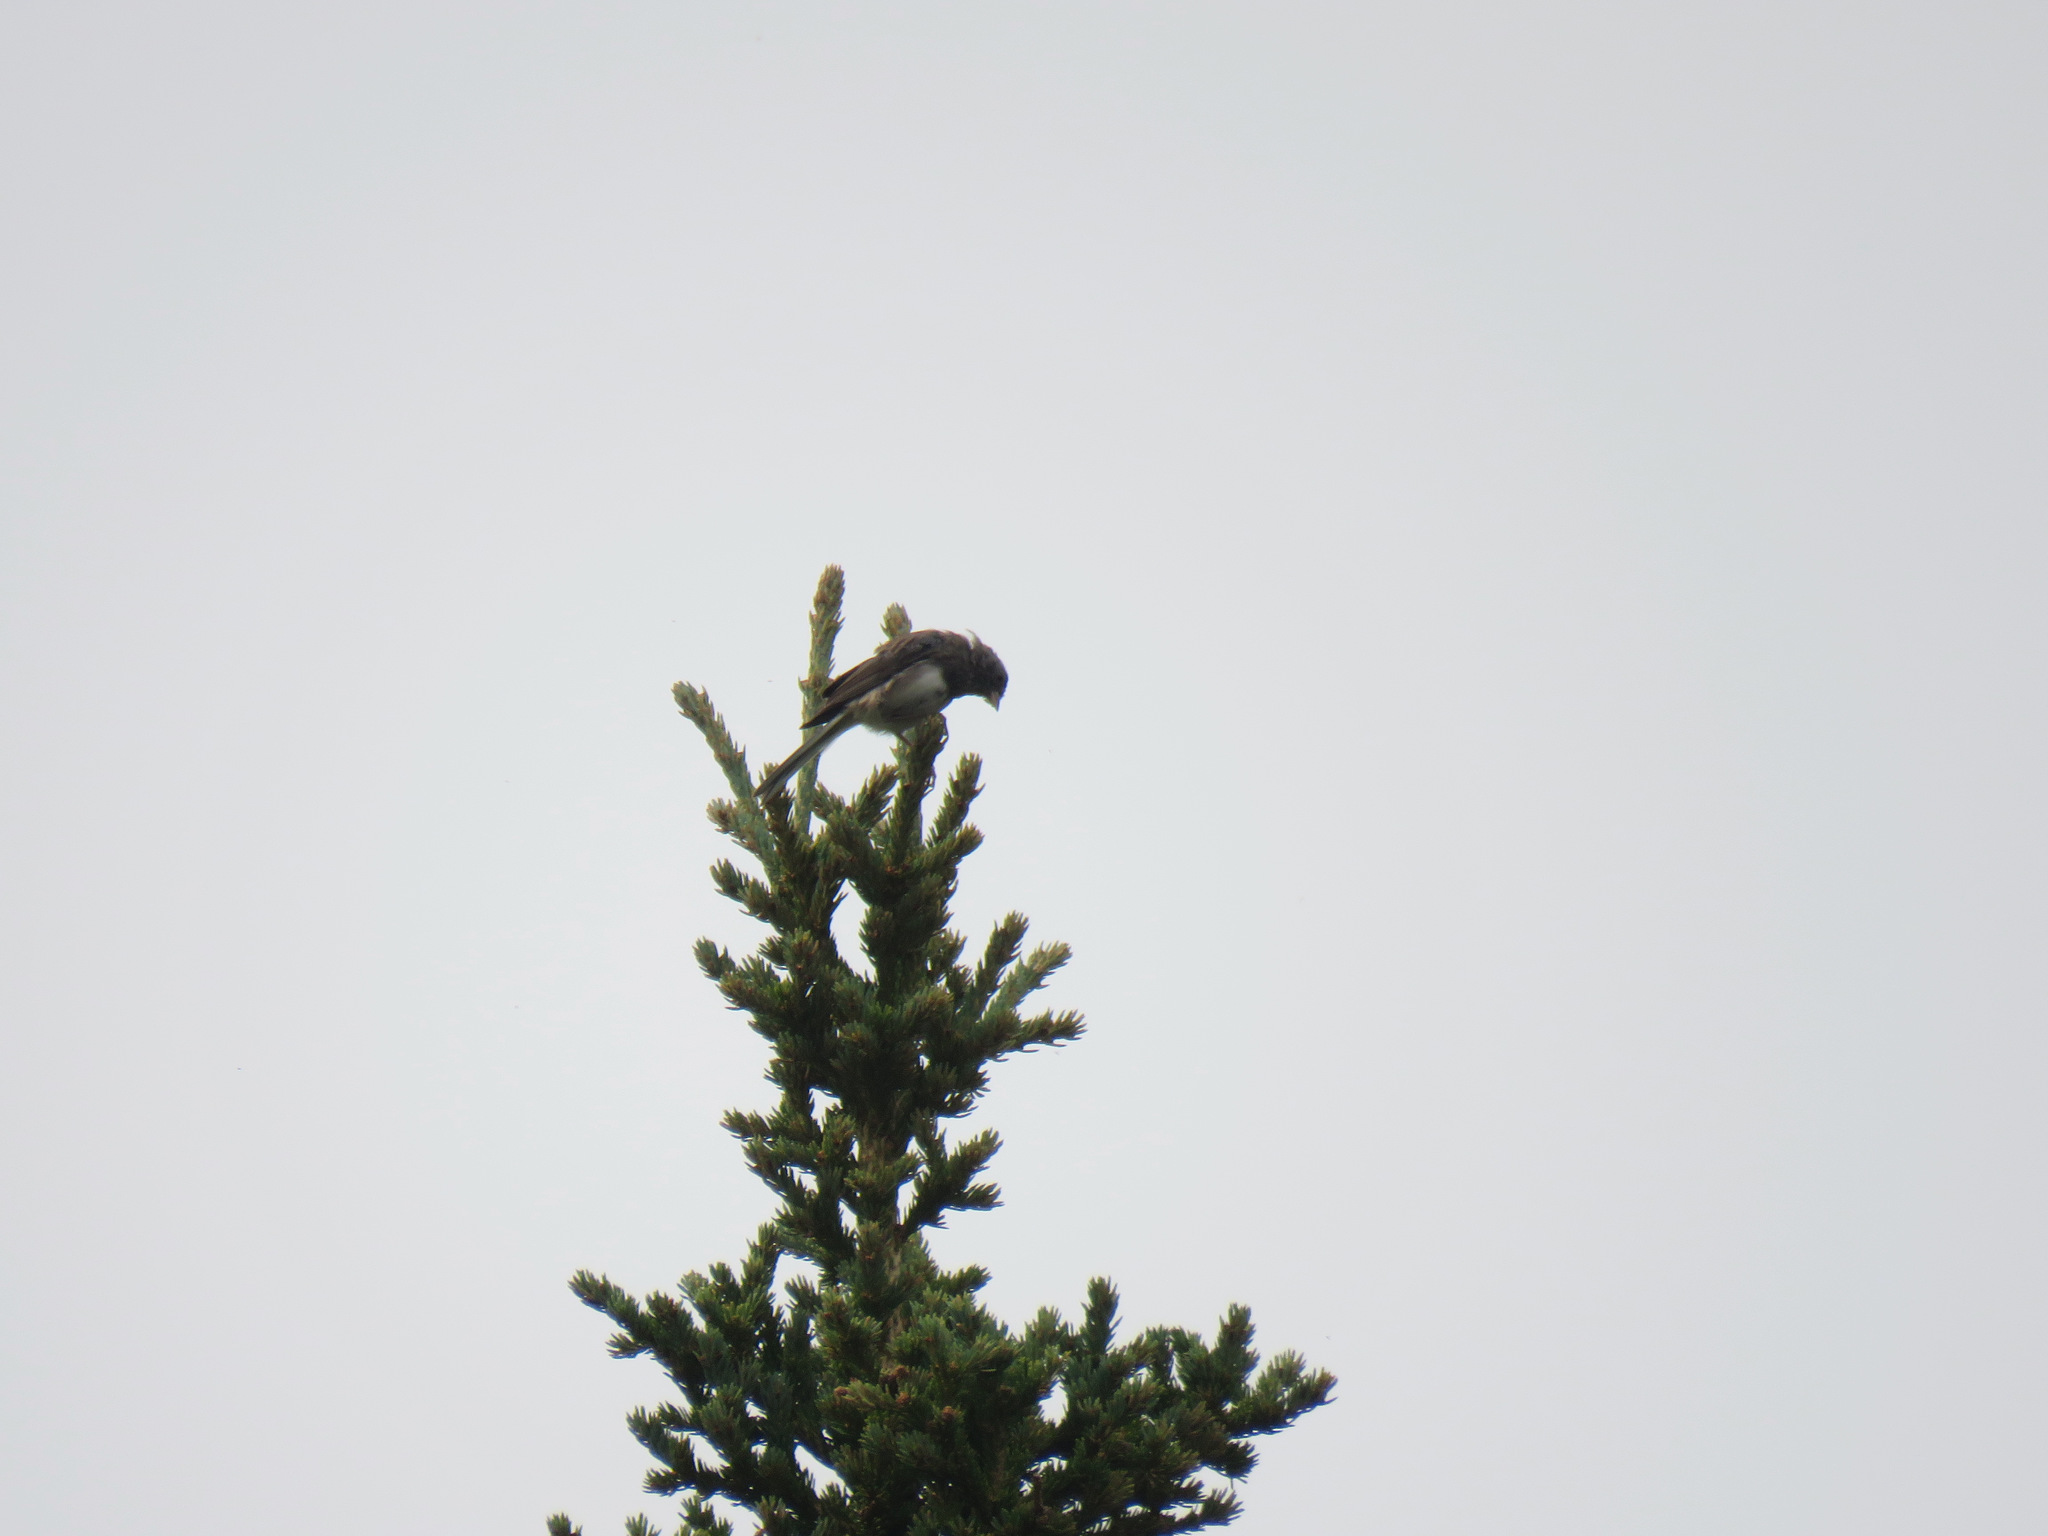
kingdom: Animalia
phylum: Chordata
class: Aves
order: Passeriformes
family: Passerellidae
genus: Junco
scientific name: Junco hyemalis
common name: Dark-eyed junco
